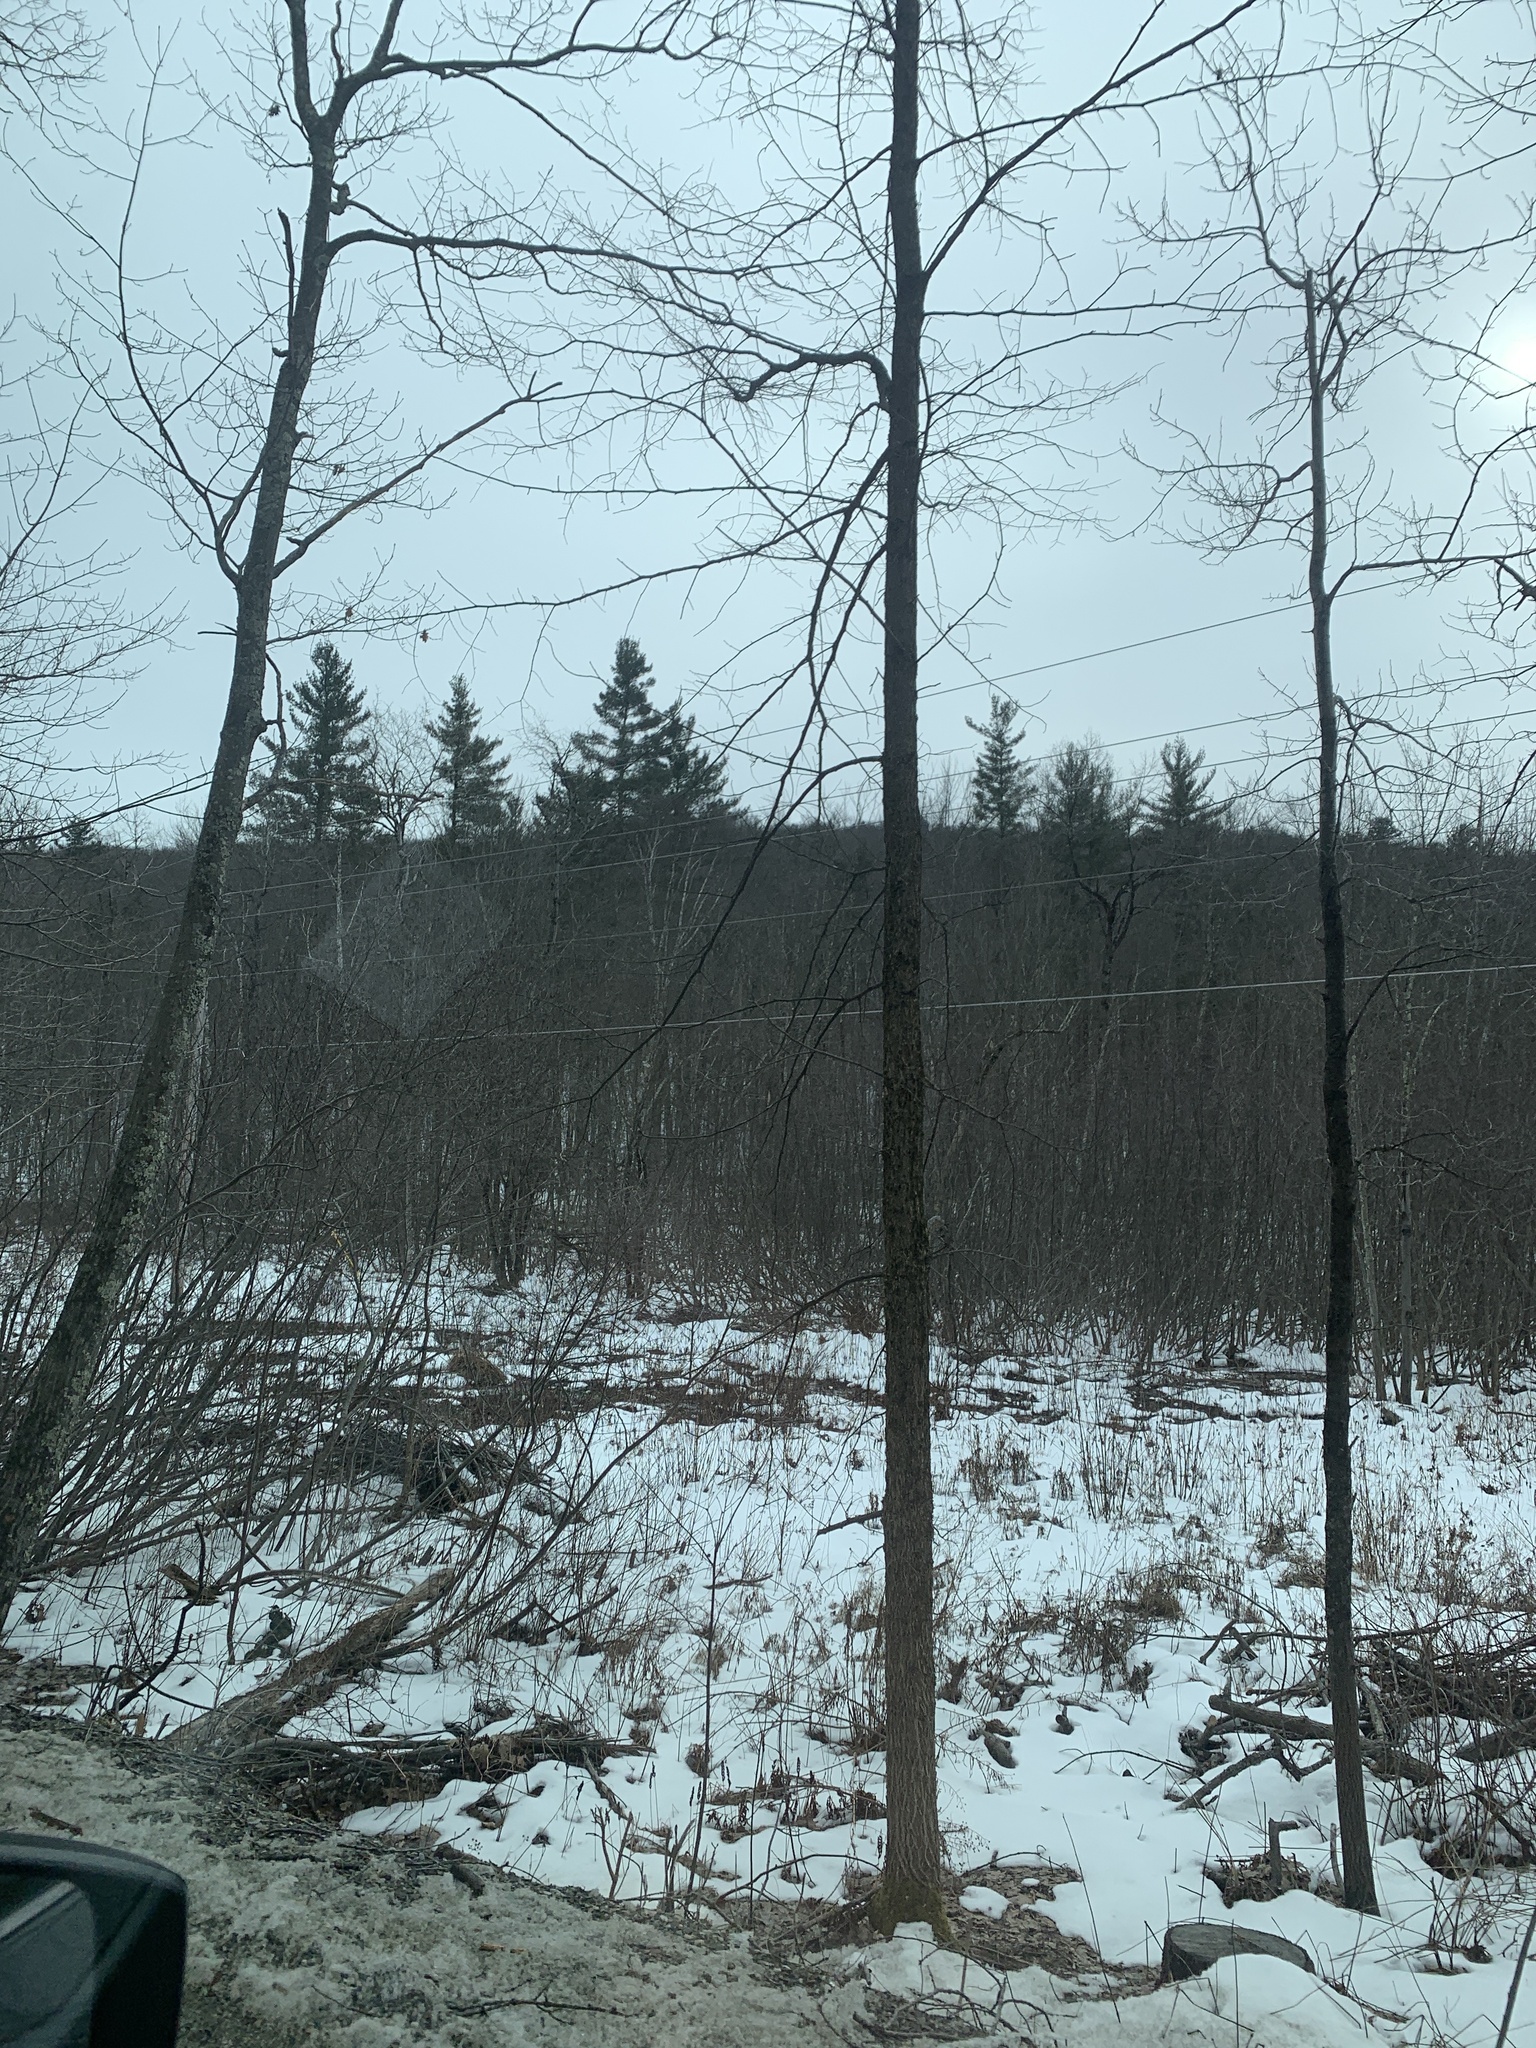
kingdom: Plantae
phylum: Tracheophyta
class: Pinopsida
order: Pinales
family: Pinaceae
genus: Pinus
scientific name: Pinus strobus
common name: Weymouth pine
